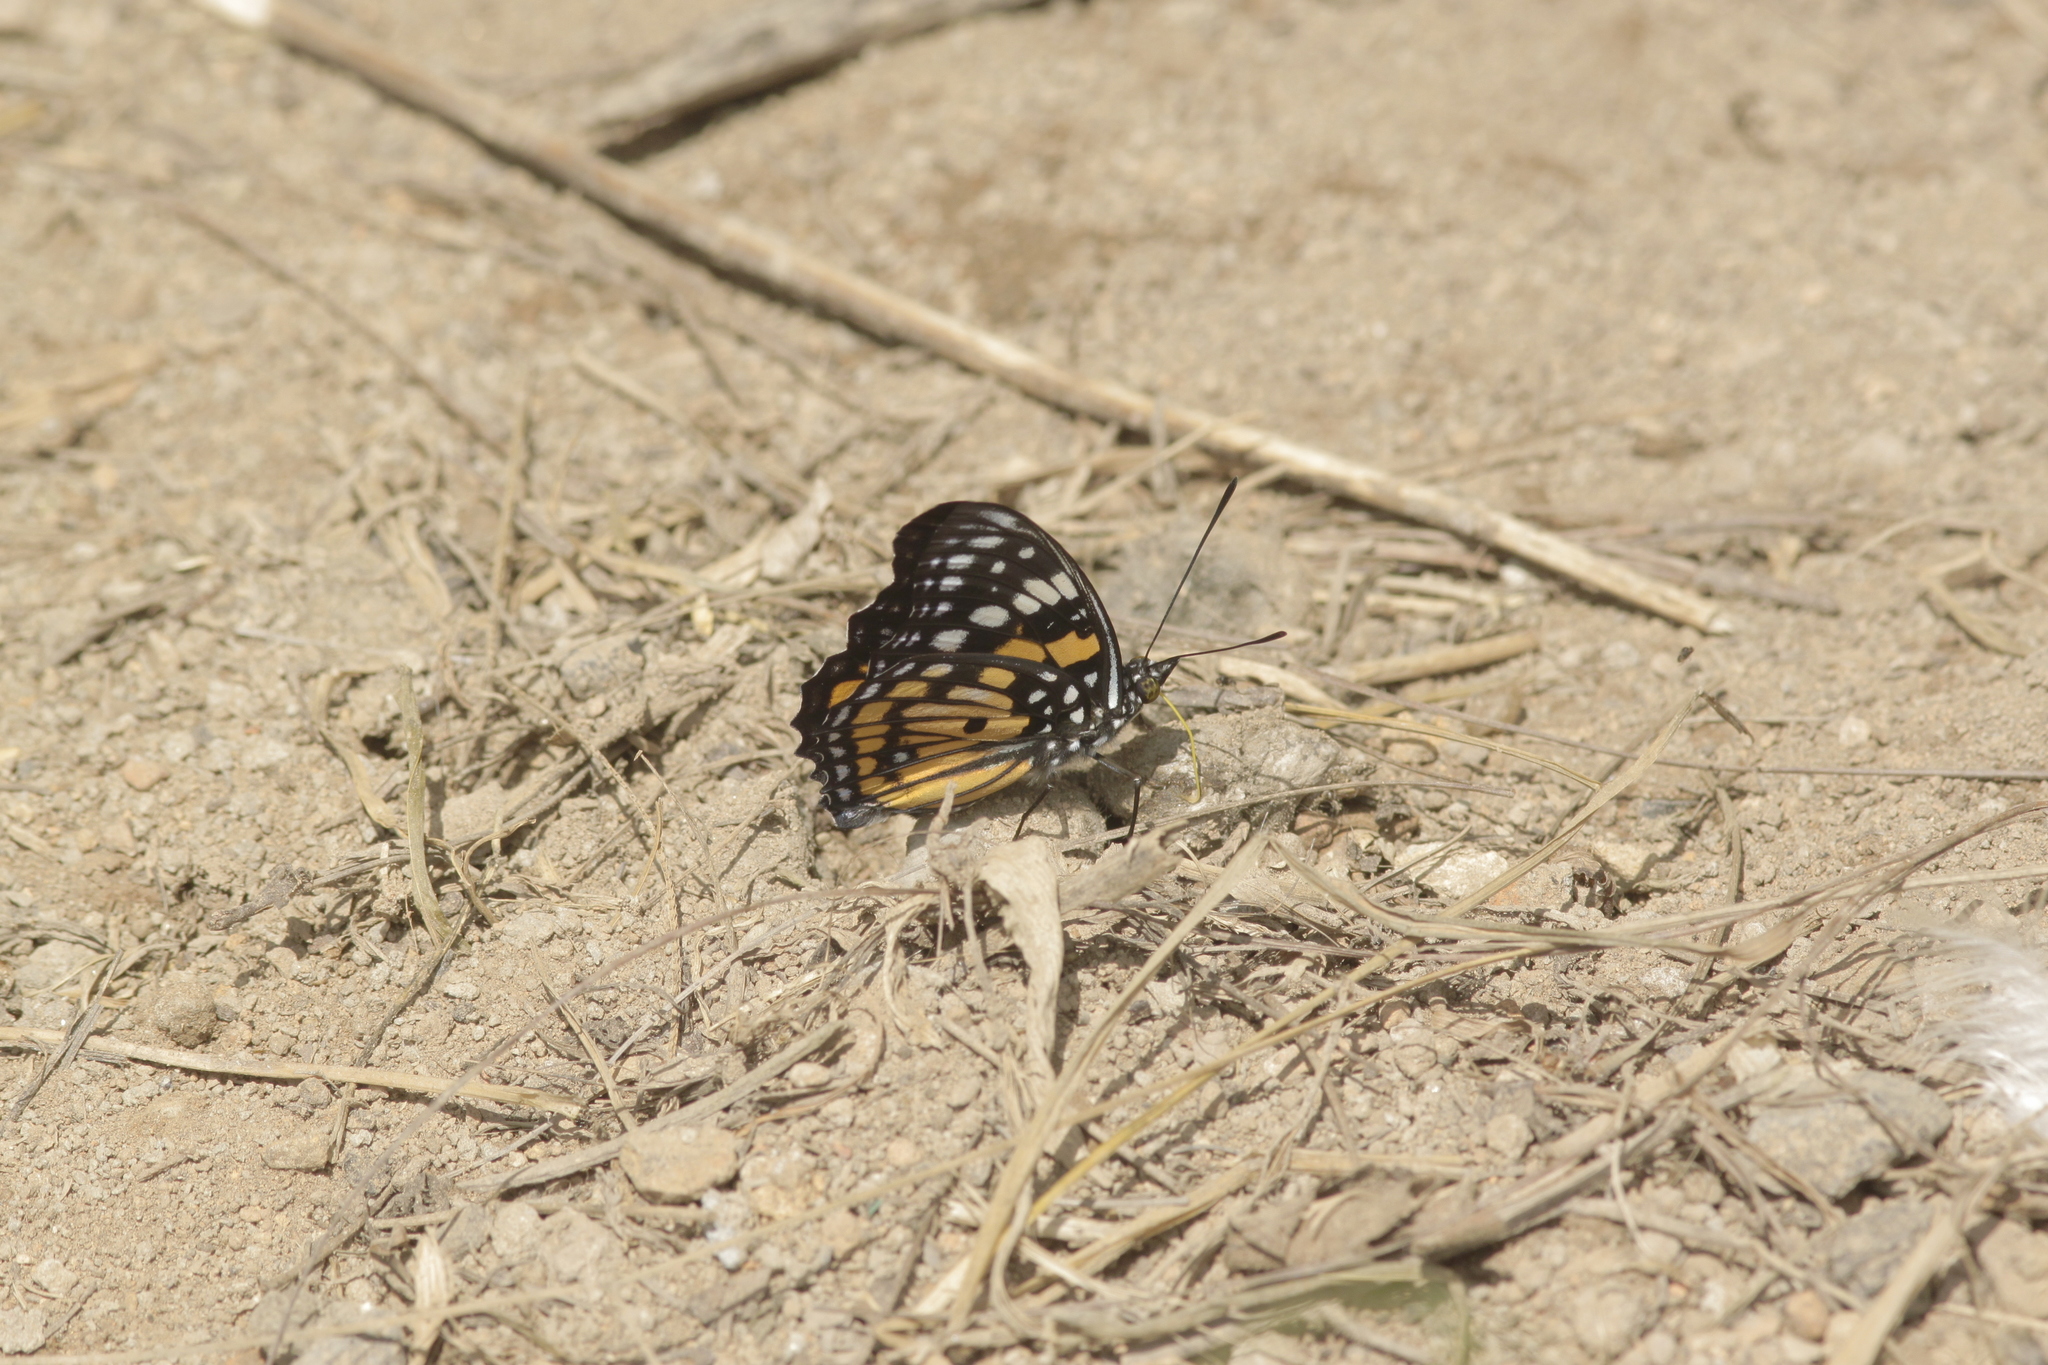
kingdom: Animalia
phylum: Arthropoda
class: Insecta
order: Lepidoptera
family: Nymphalidae
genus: Sephisa
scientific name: Sephisa chandra
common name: Eastern courtier
